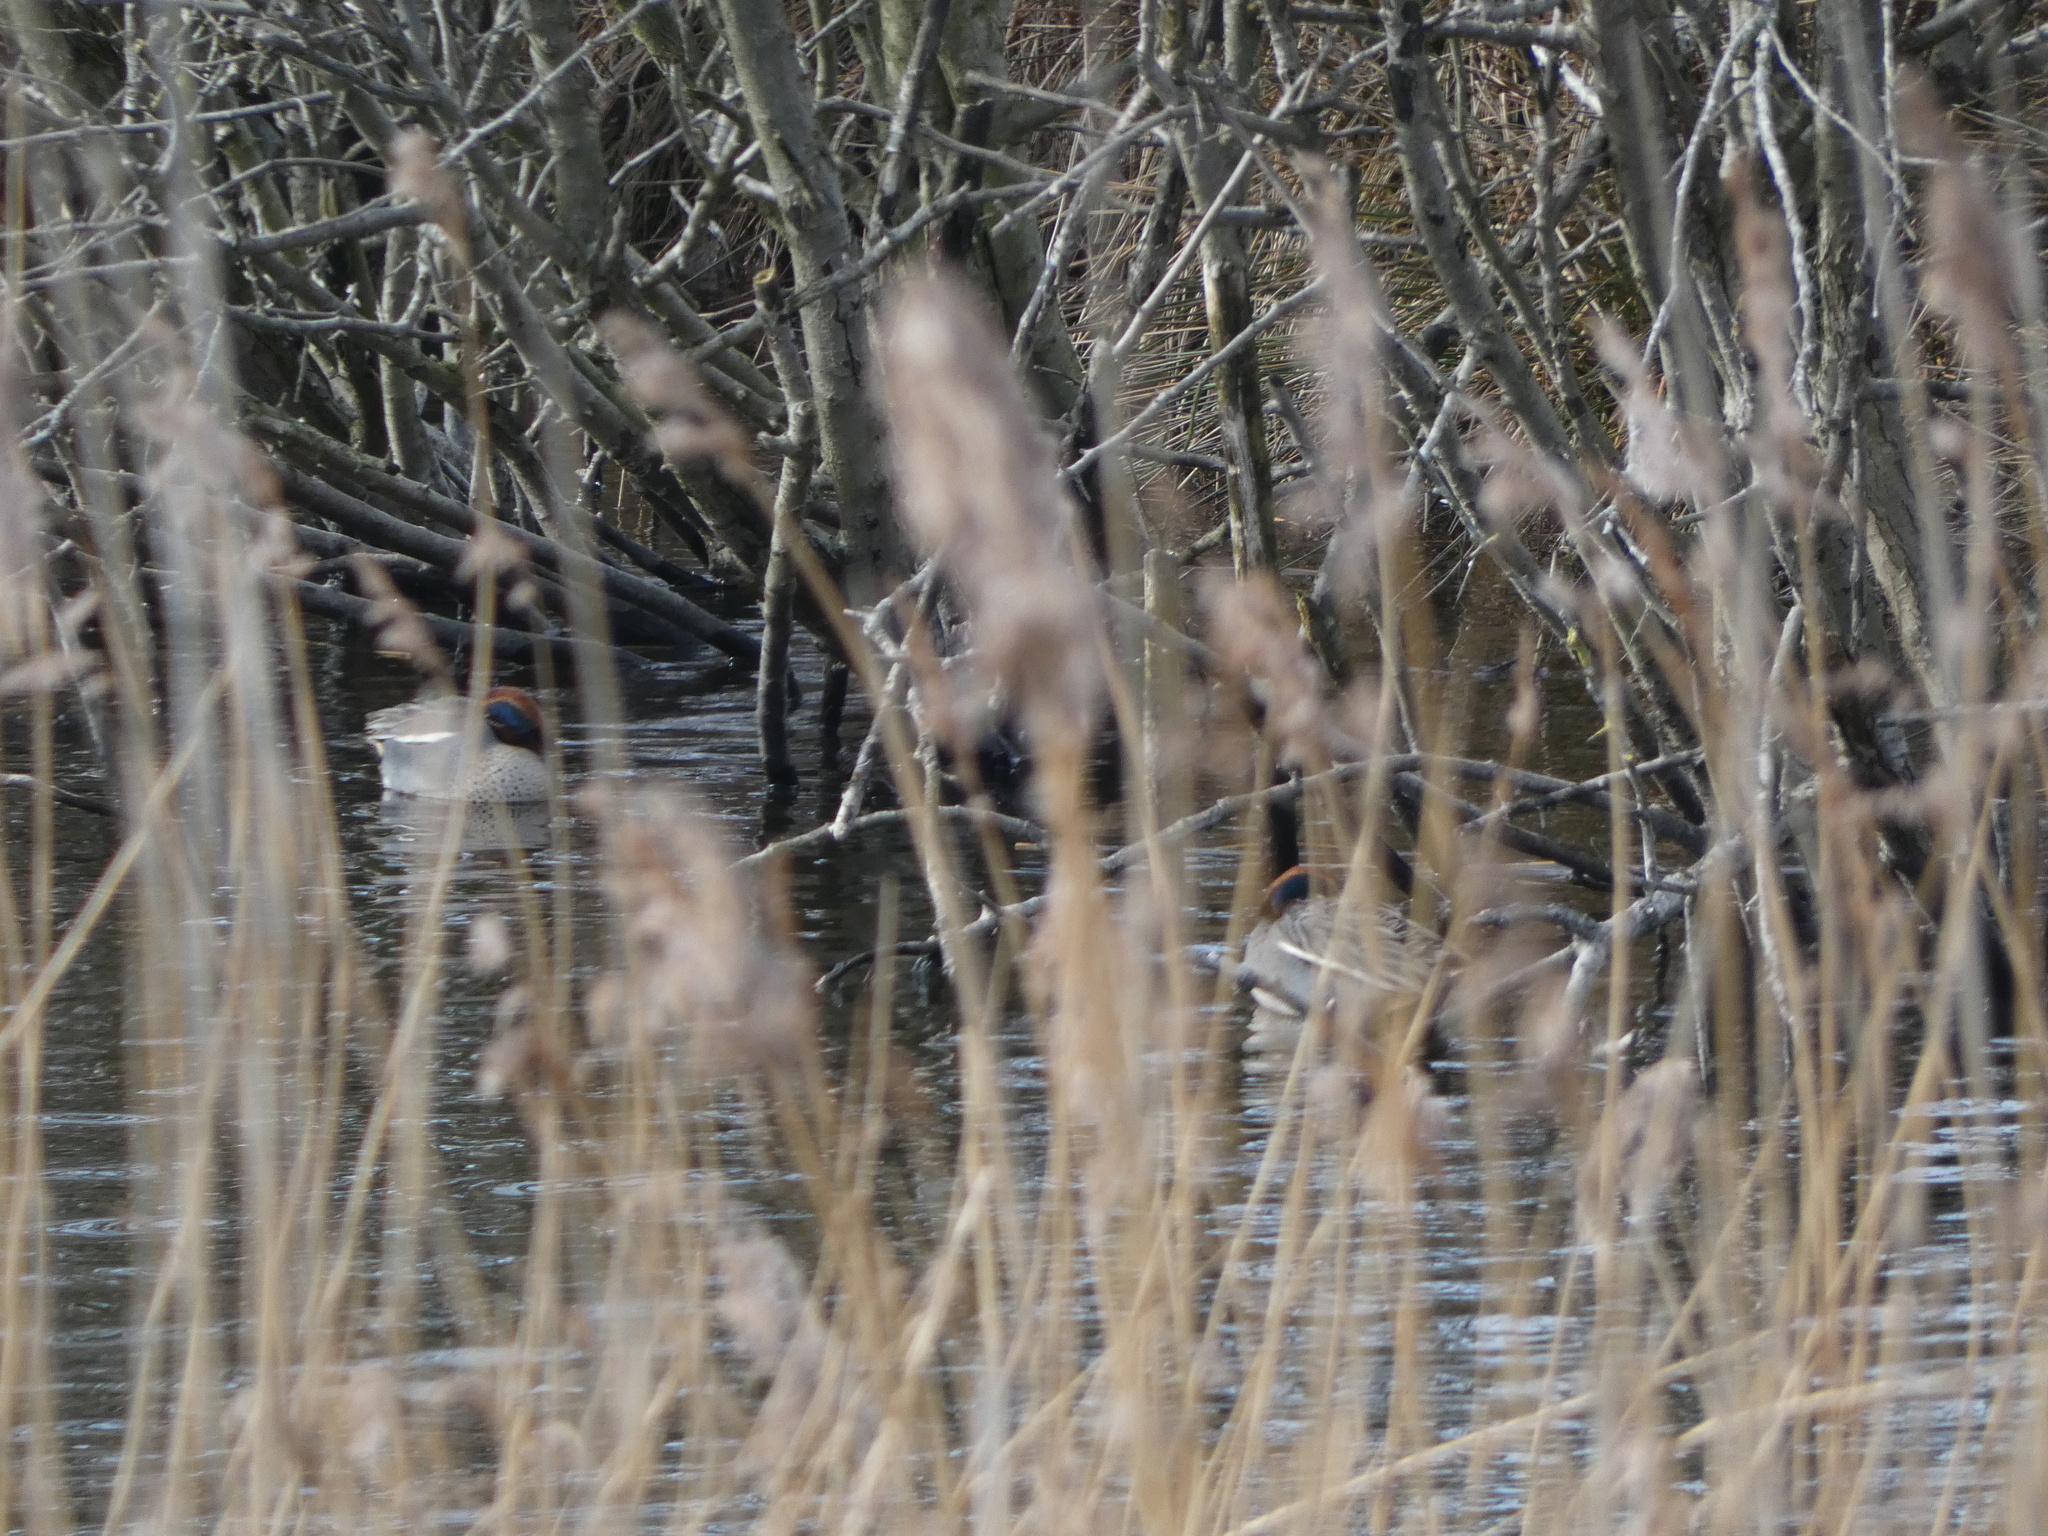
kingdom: Animalia
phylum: Chordata
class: Aves
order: Anseriformes
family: Anatidae
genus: Anas
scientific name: Anas crecca
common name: Eurasian teal
